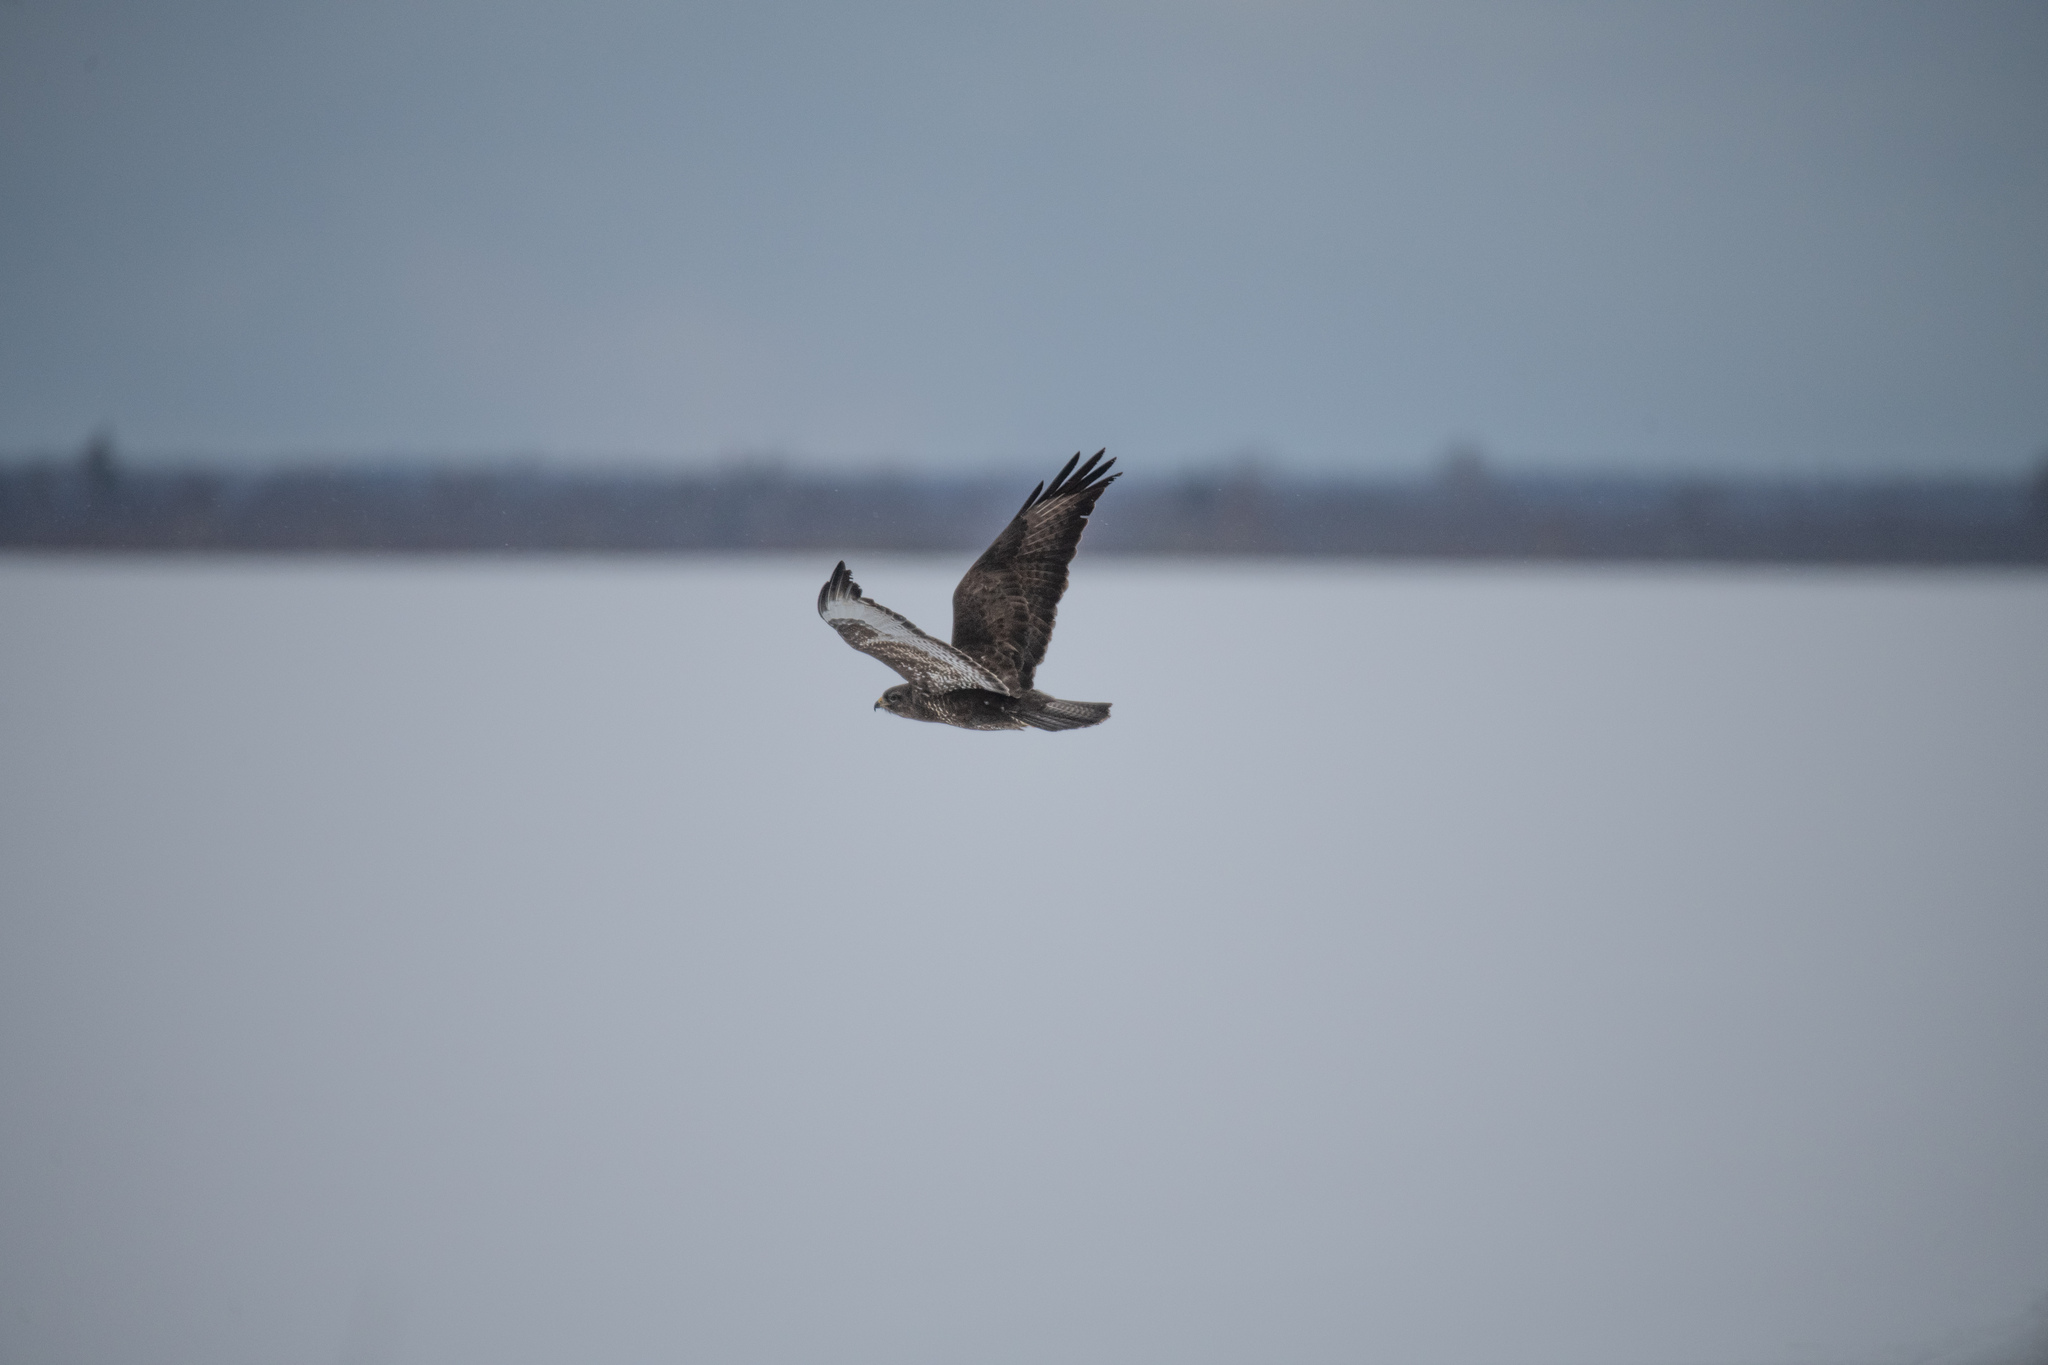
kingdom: Animalia
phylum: Chordata
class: Aves
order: Accipitriformes
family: Accipitridae
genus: Buteo
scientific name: Buteo buteo
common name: Common buzzard
